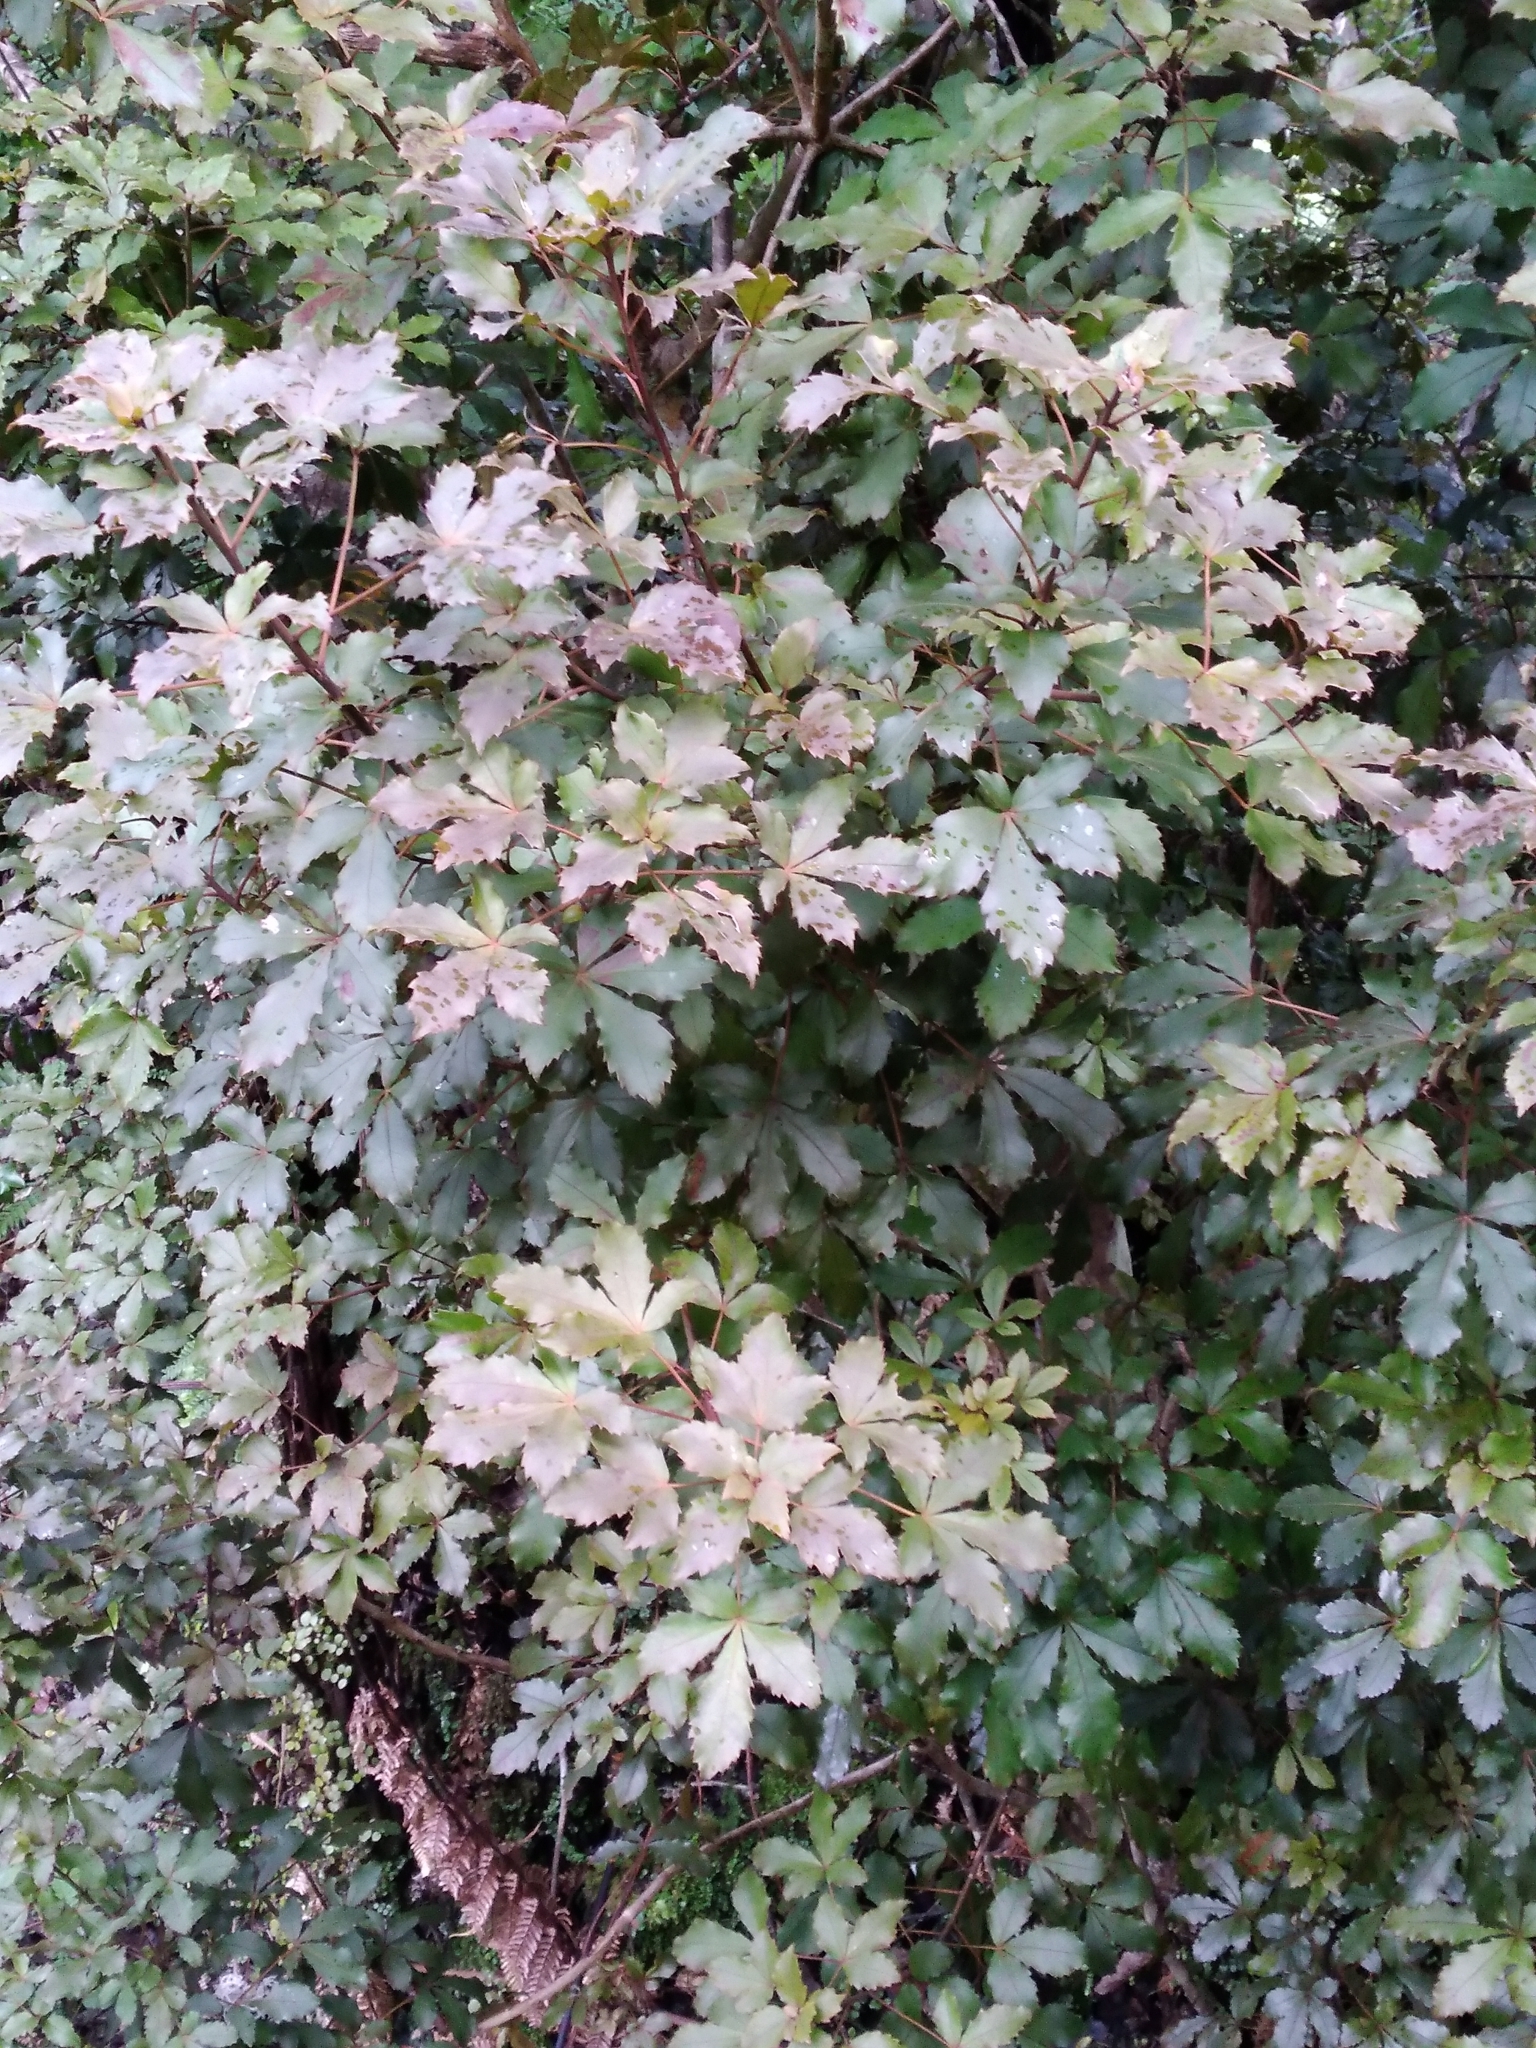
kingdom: Plantae
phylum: Tracheophyta
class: Magnoliopsida
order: Apiales
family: Araliaceae
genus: Pseudopanax
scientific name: Pseudopanax discolor
